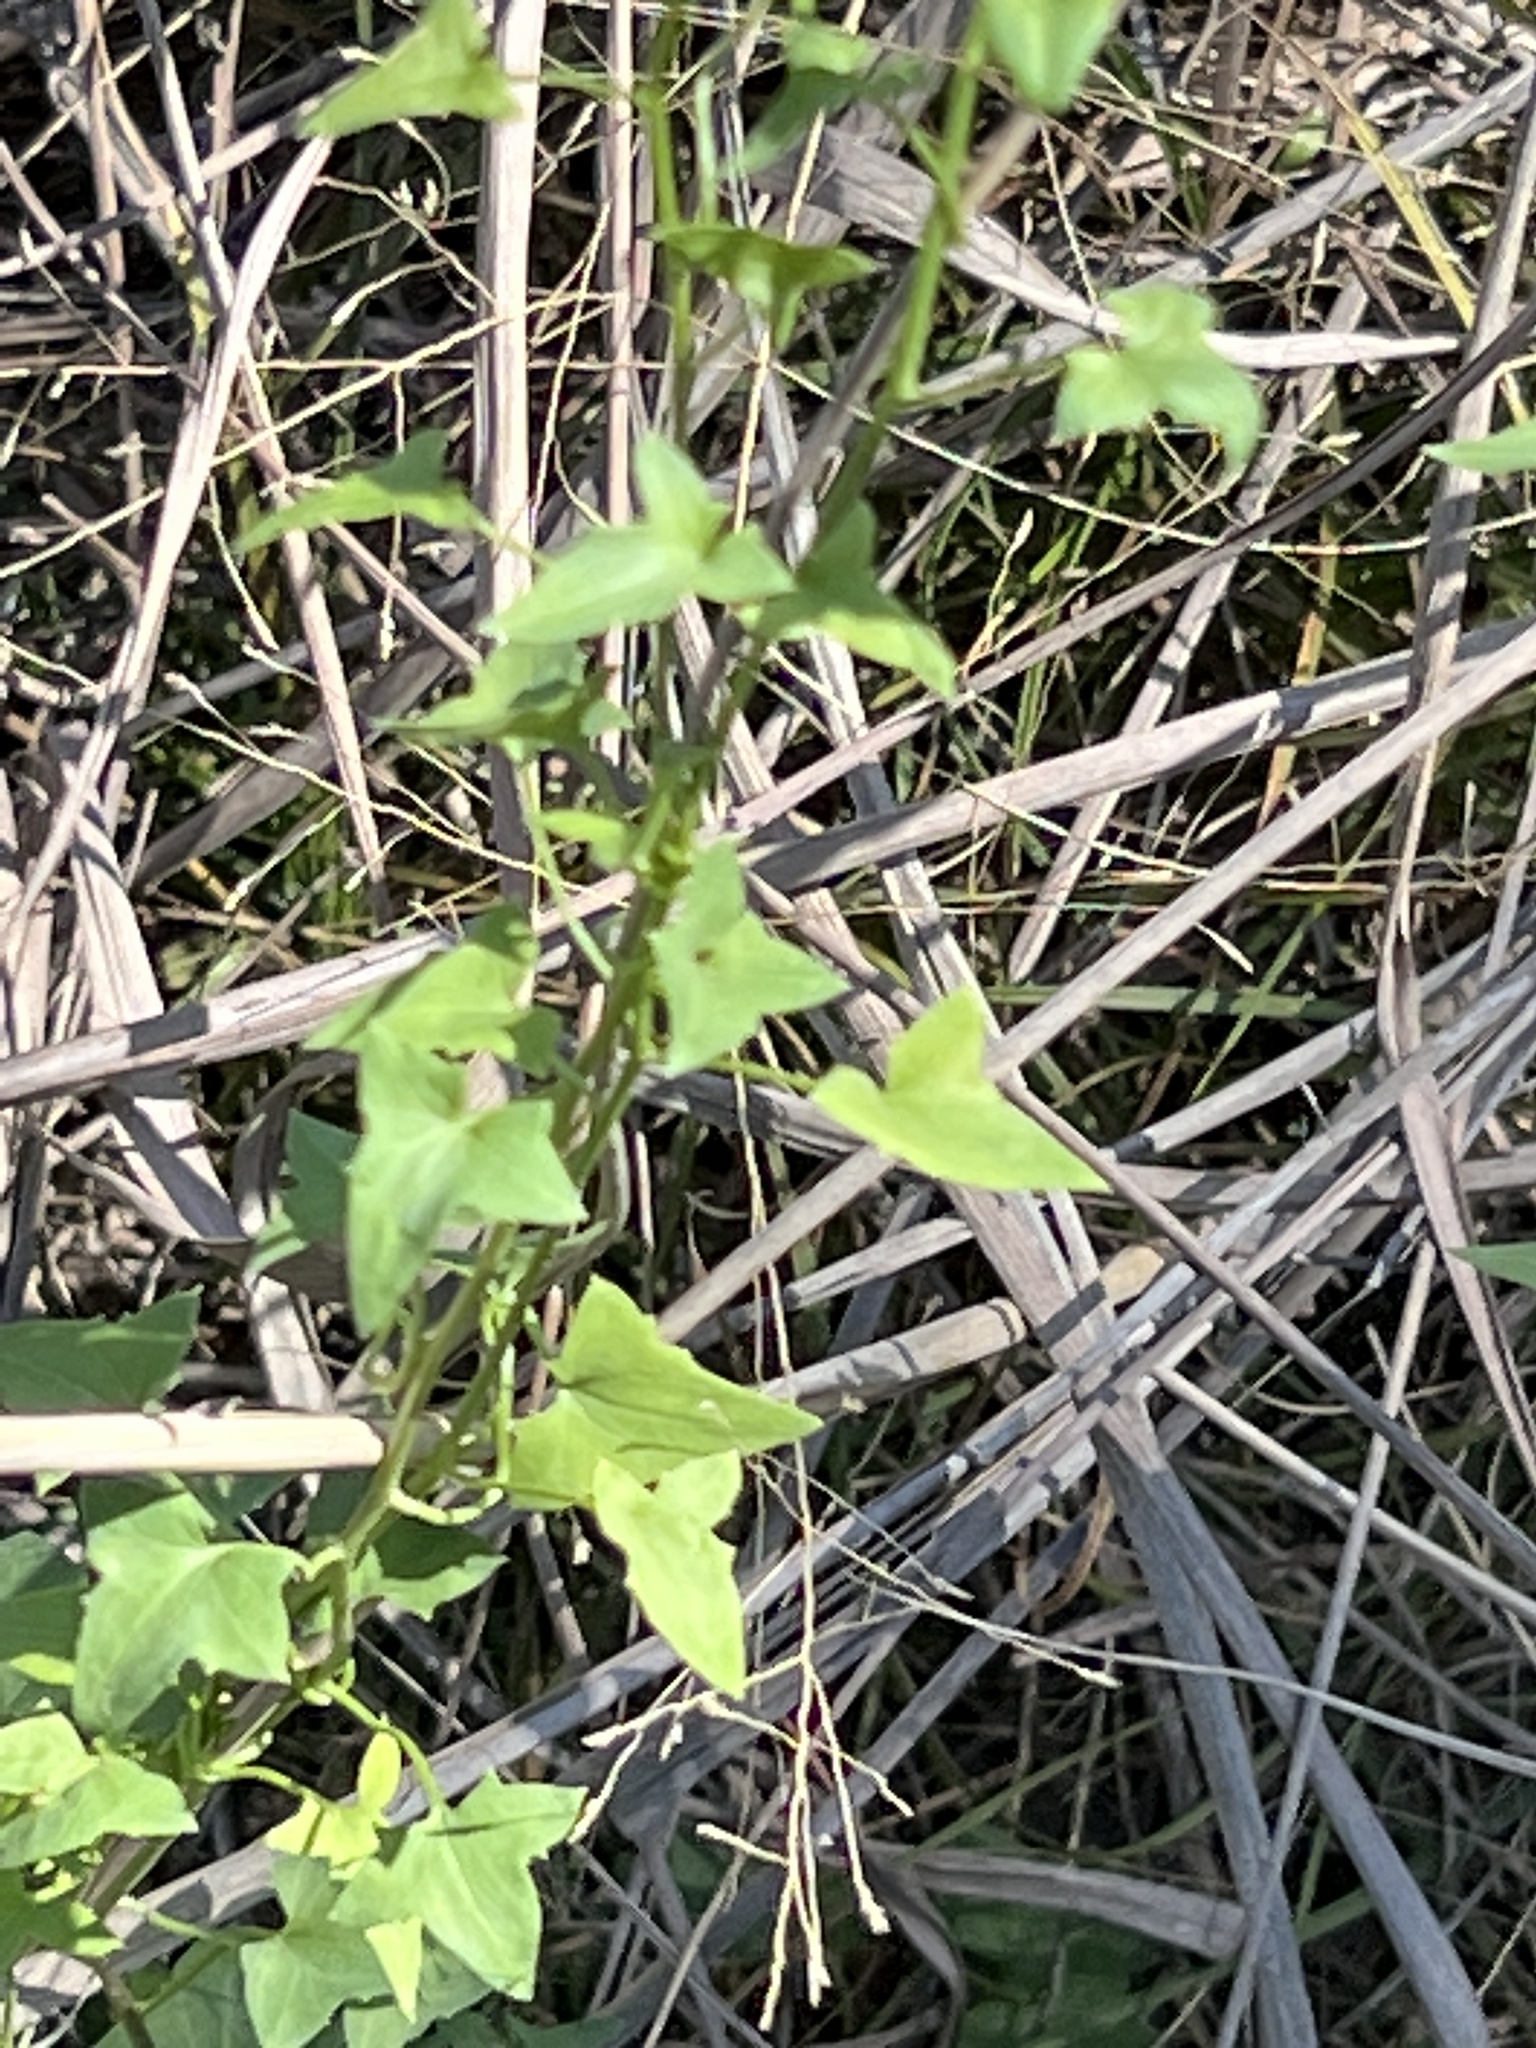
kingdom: Plantae
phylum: Tracheophyta
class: Magnoliopsida
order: Lamiales
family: Plantaginaceae
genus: Maurandella
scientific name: Maurandella antirrhiniflora
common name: Violet twining-snapdragon
